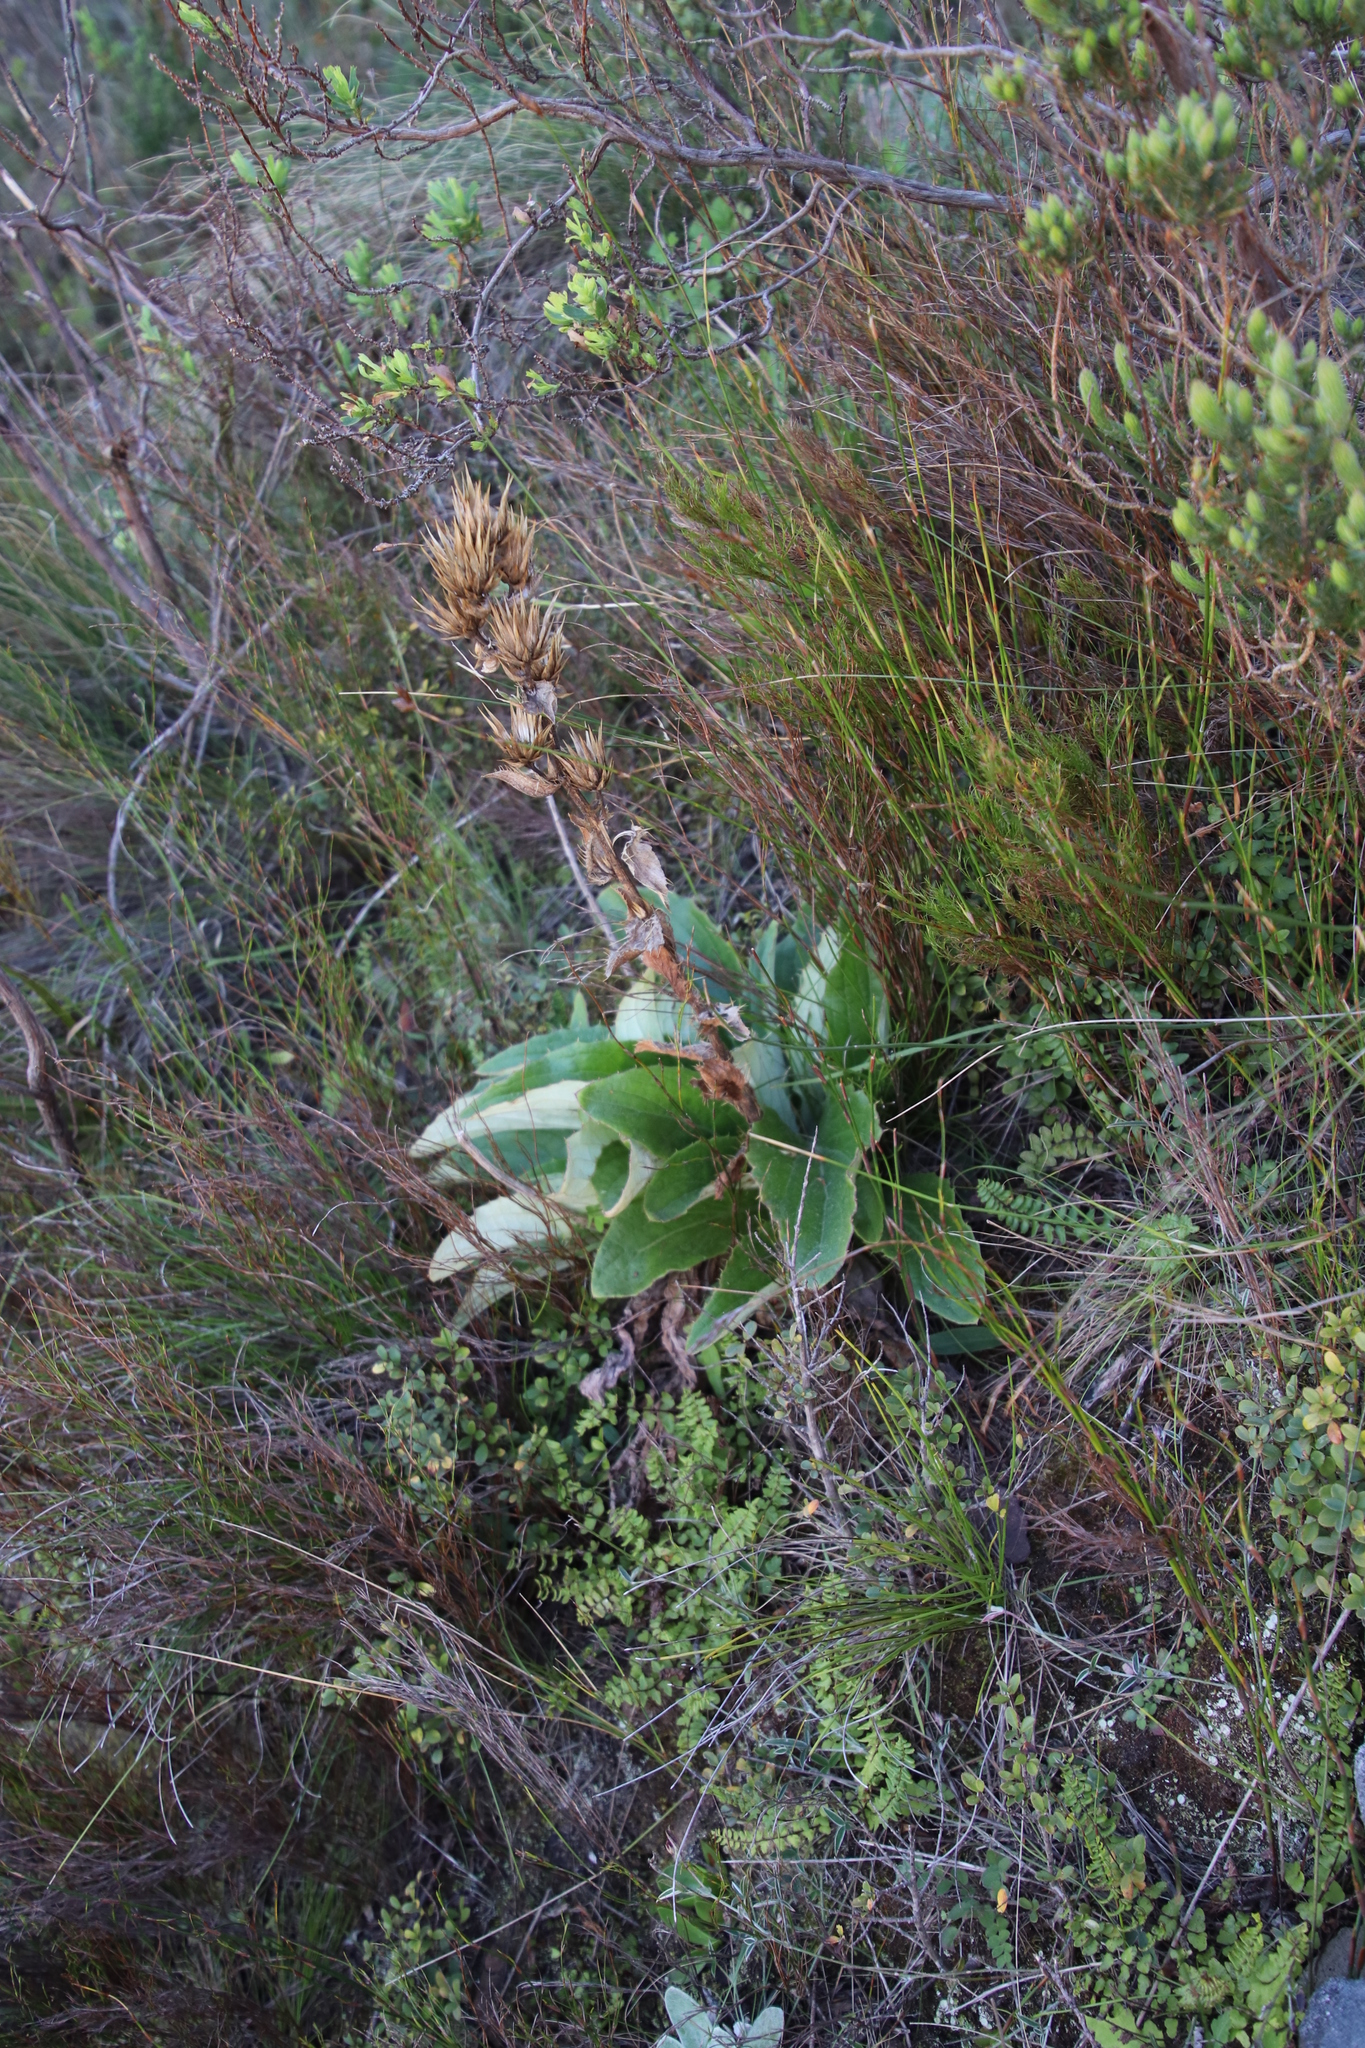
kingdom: Plantae
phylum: Tracheophyta
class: Magnoliopsida
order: Asterales
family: Asteraceae
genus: Berkheya
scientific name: Berkheya herbacea
